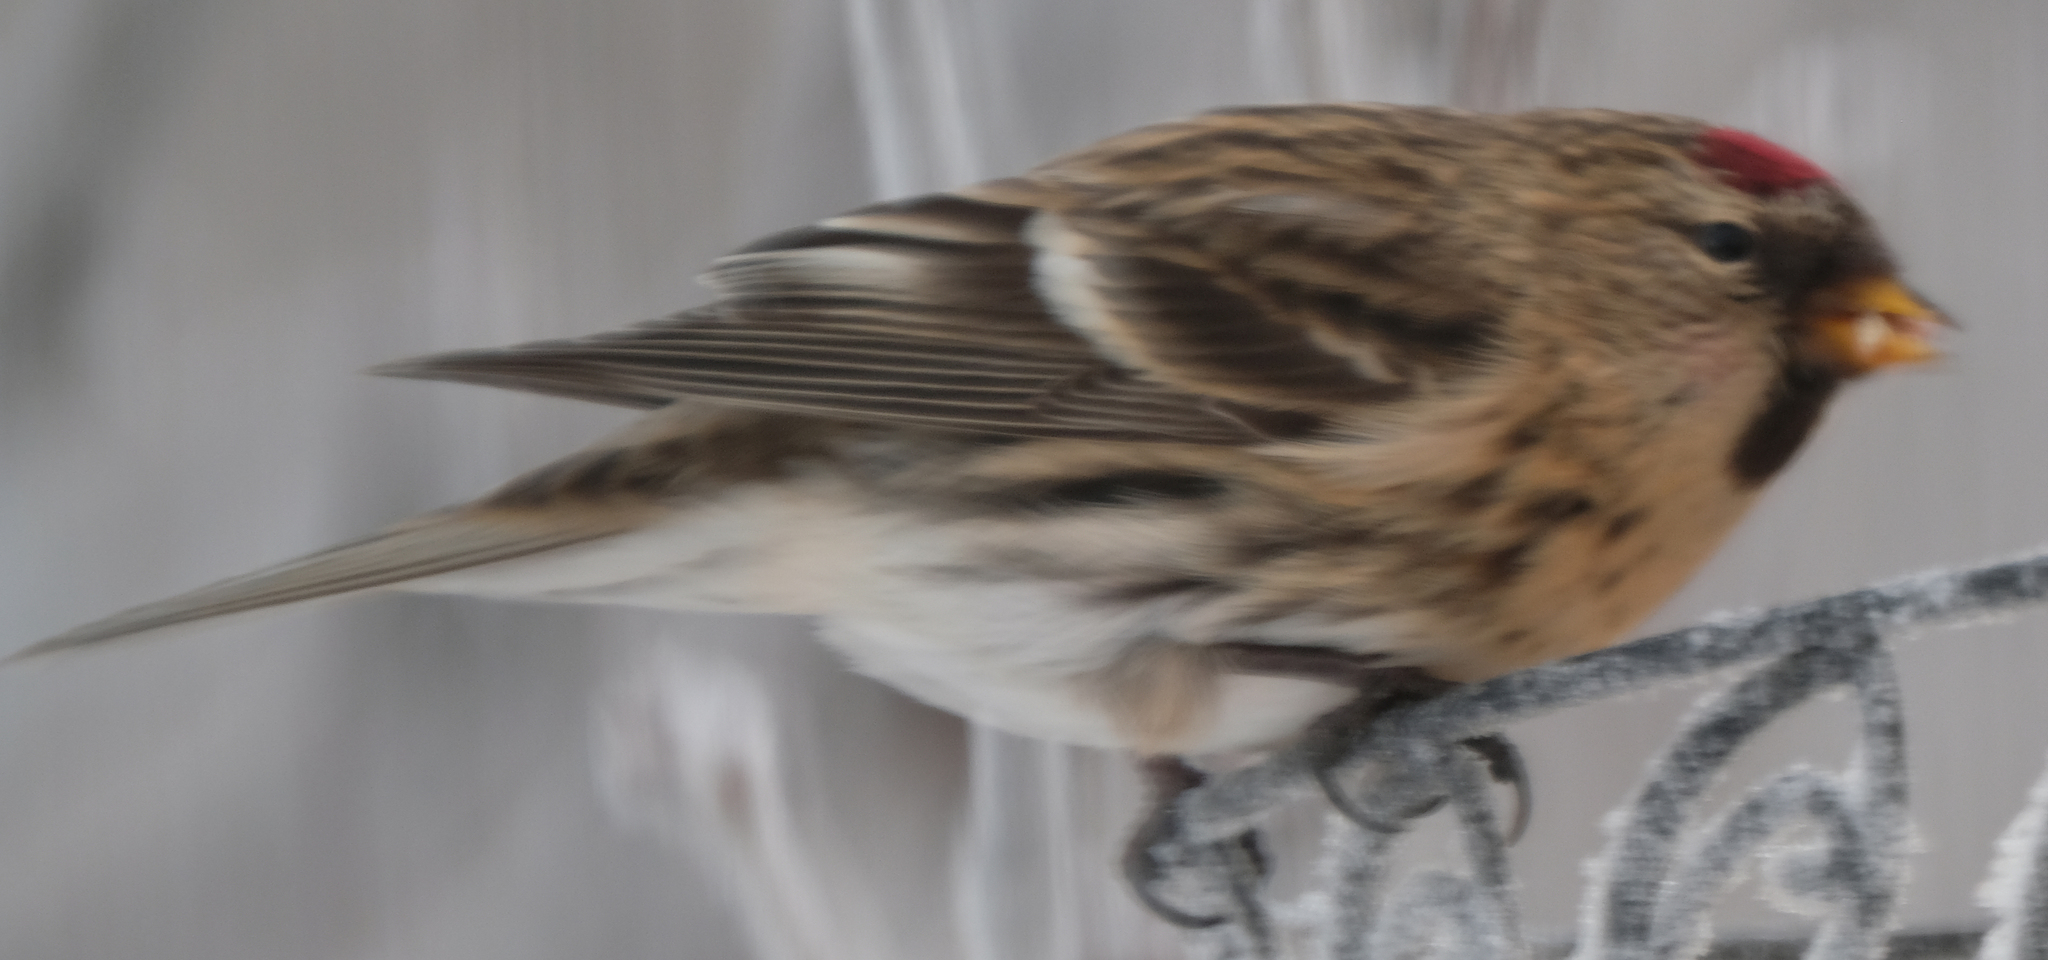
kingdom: Animalia
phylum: Chordata
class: Aves
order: Passeriformes
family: Fringillidae
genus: Acanthis
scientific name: Acanthis flammea
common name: Common redpoll
